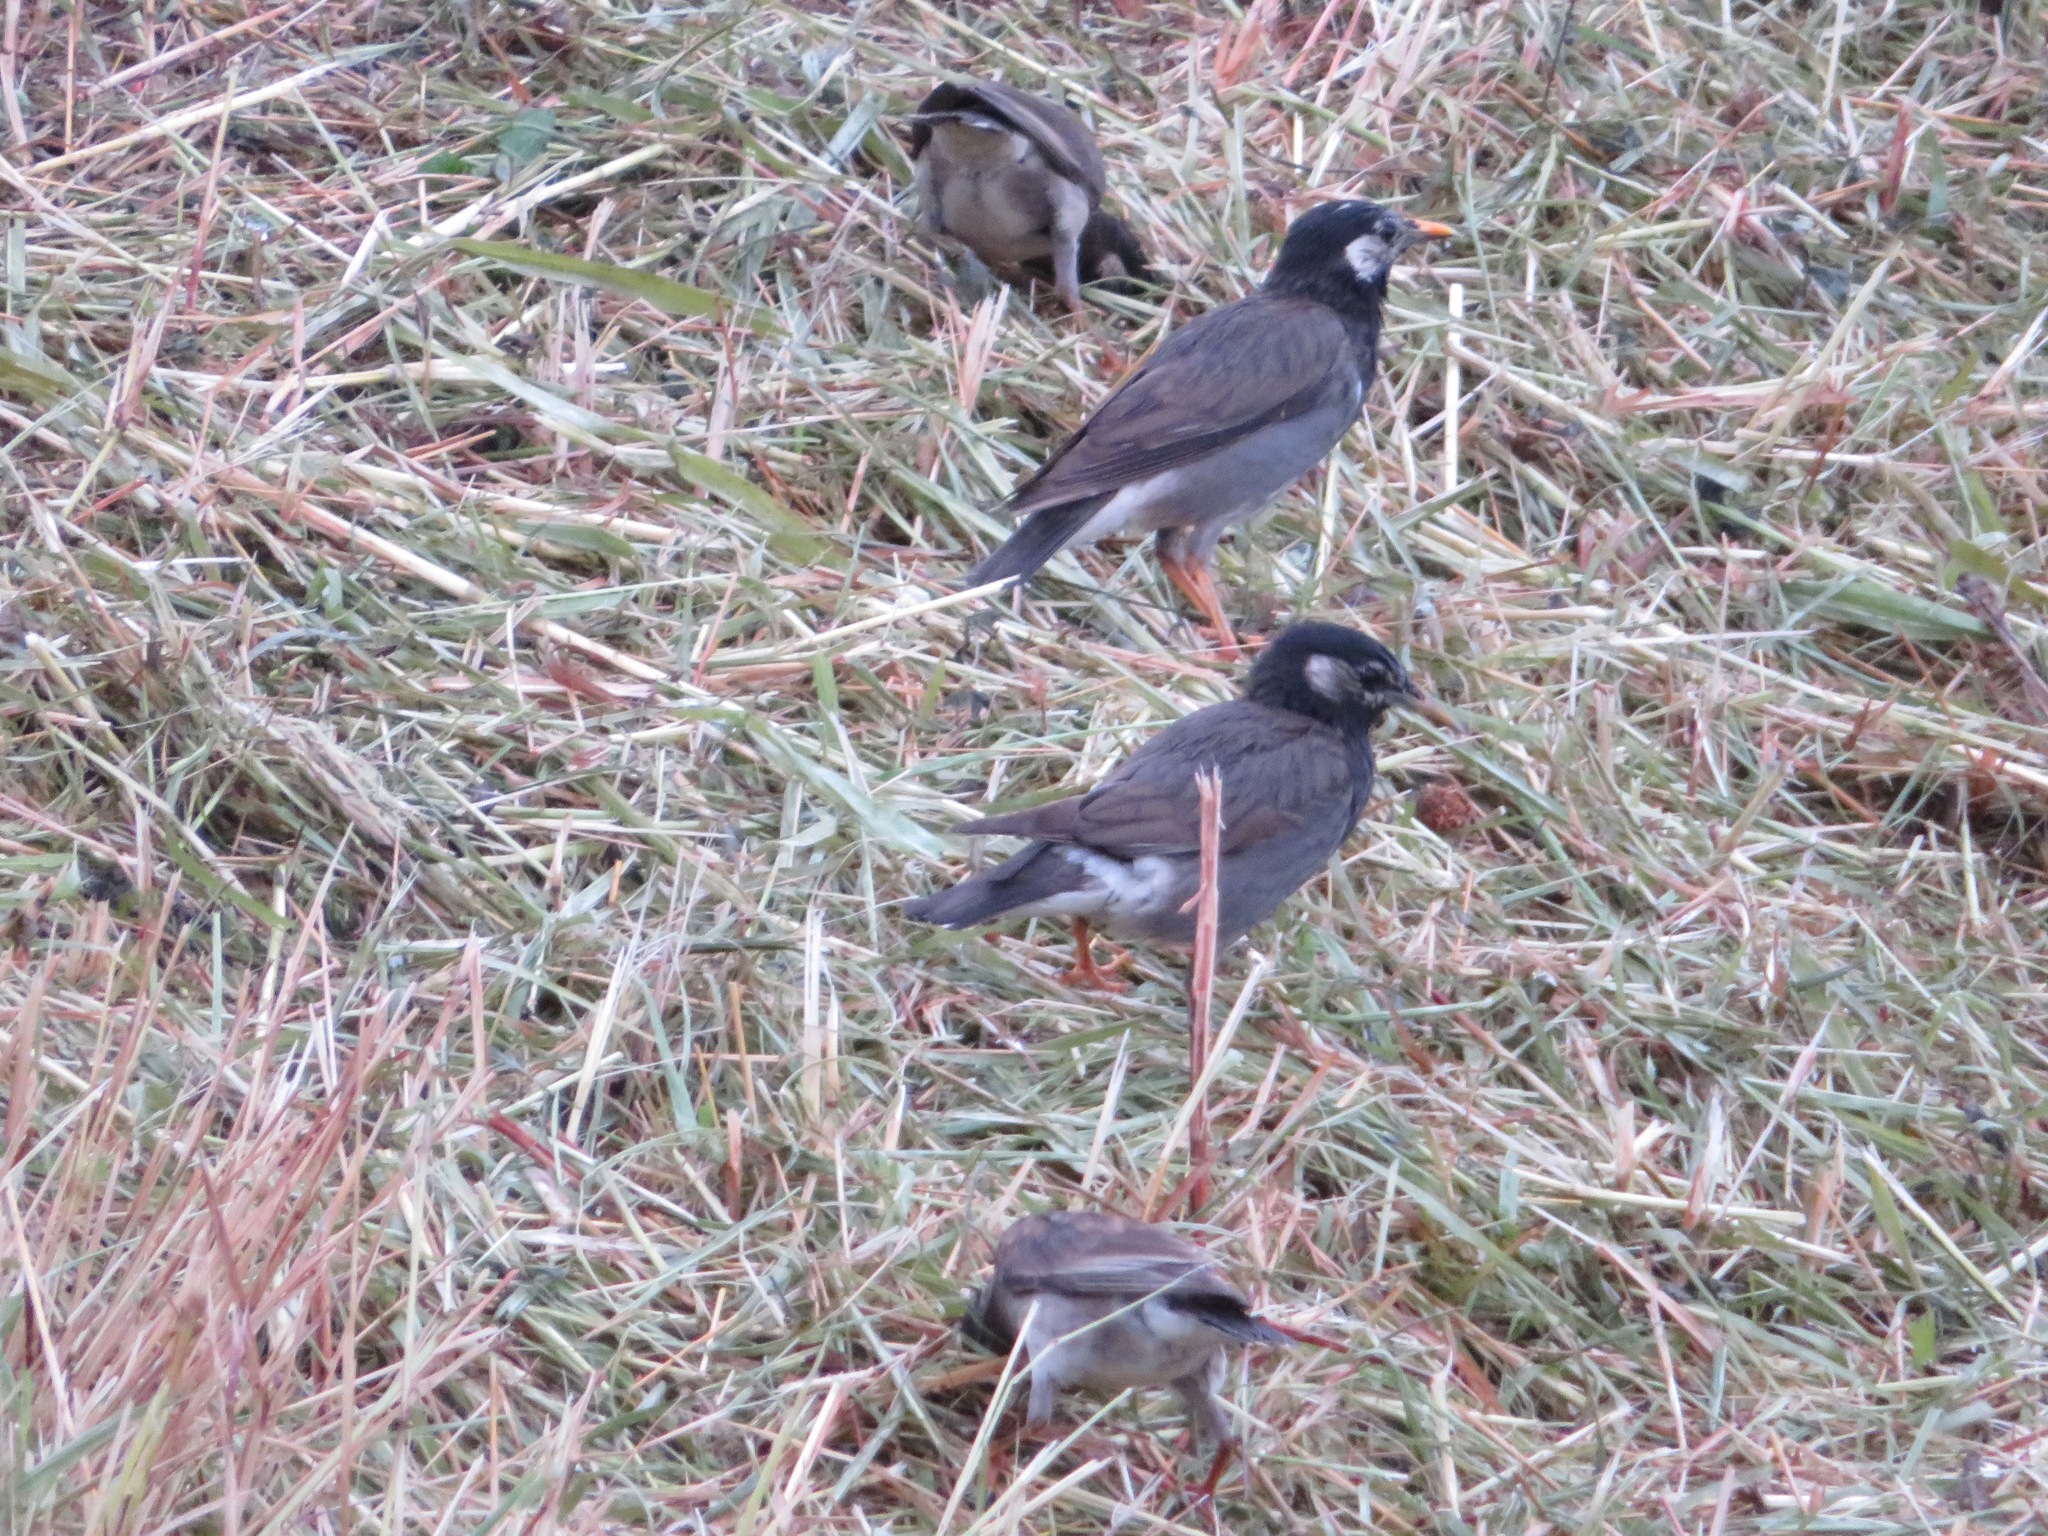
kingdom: Animalia
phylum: Chordata
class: Aves
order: Passeriformes
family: Sturnidae
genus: Spodiopsar
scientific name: Spodiopsar cineraceus
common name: White-cheeked starling
